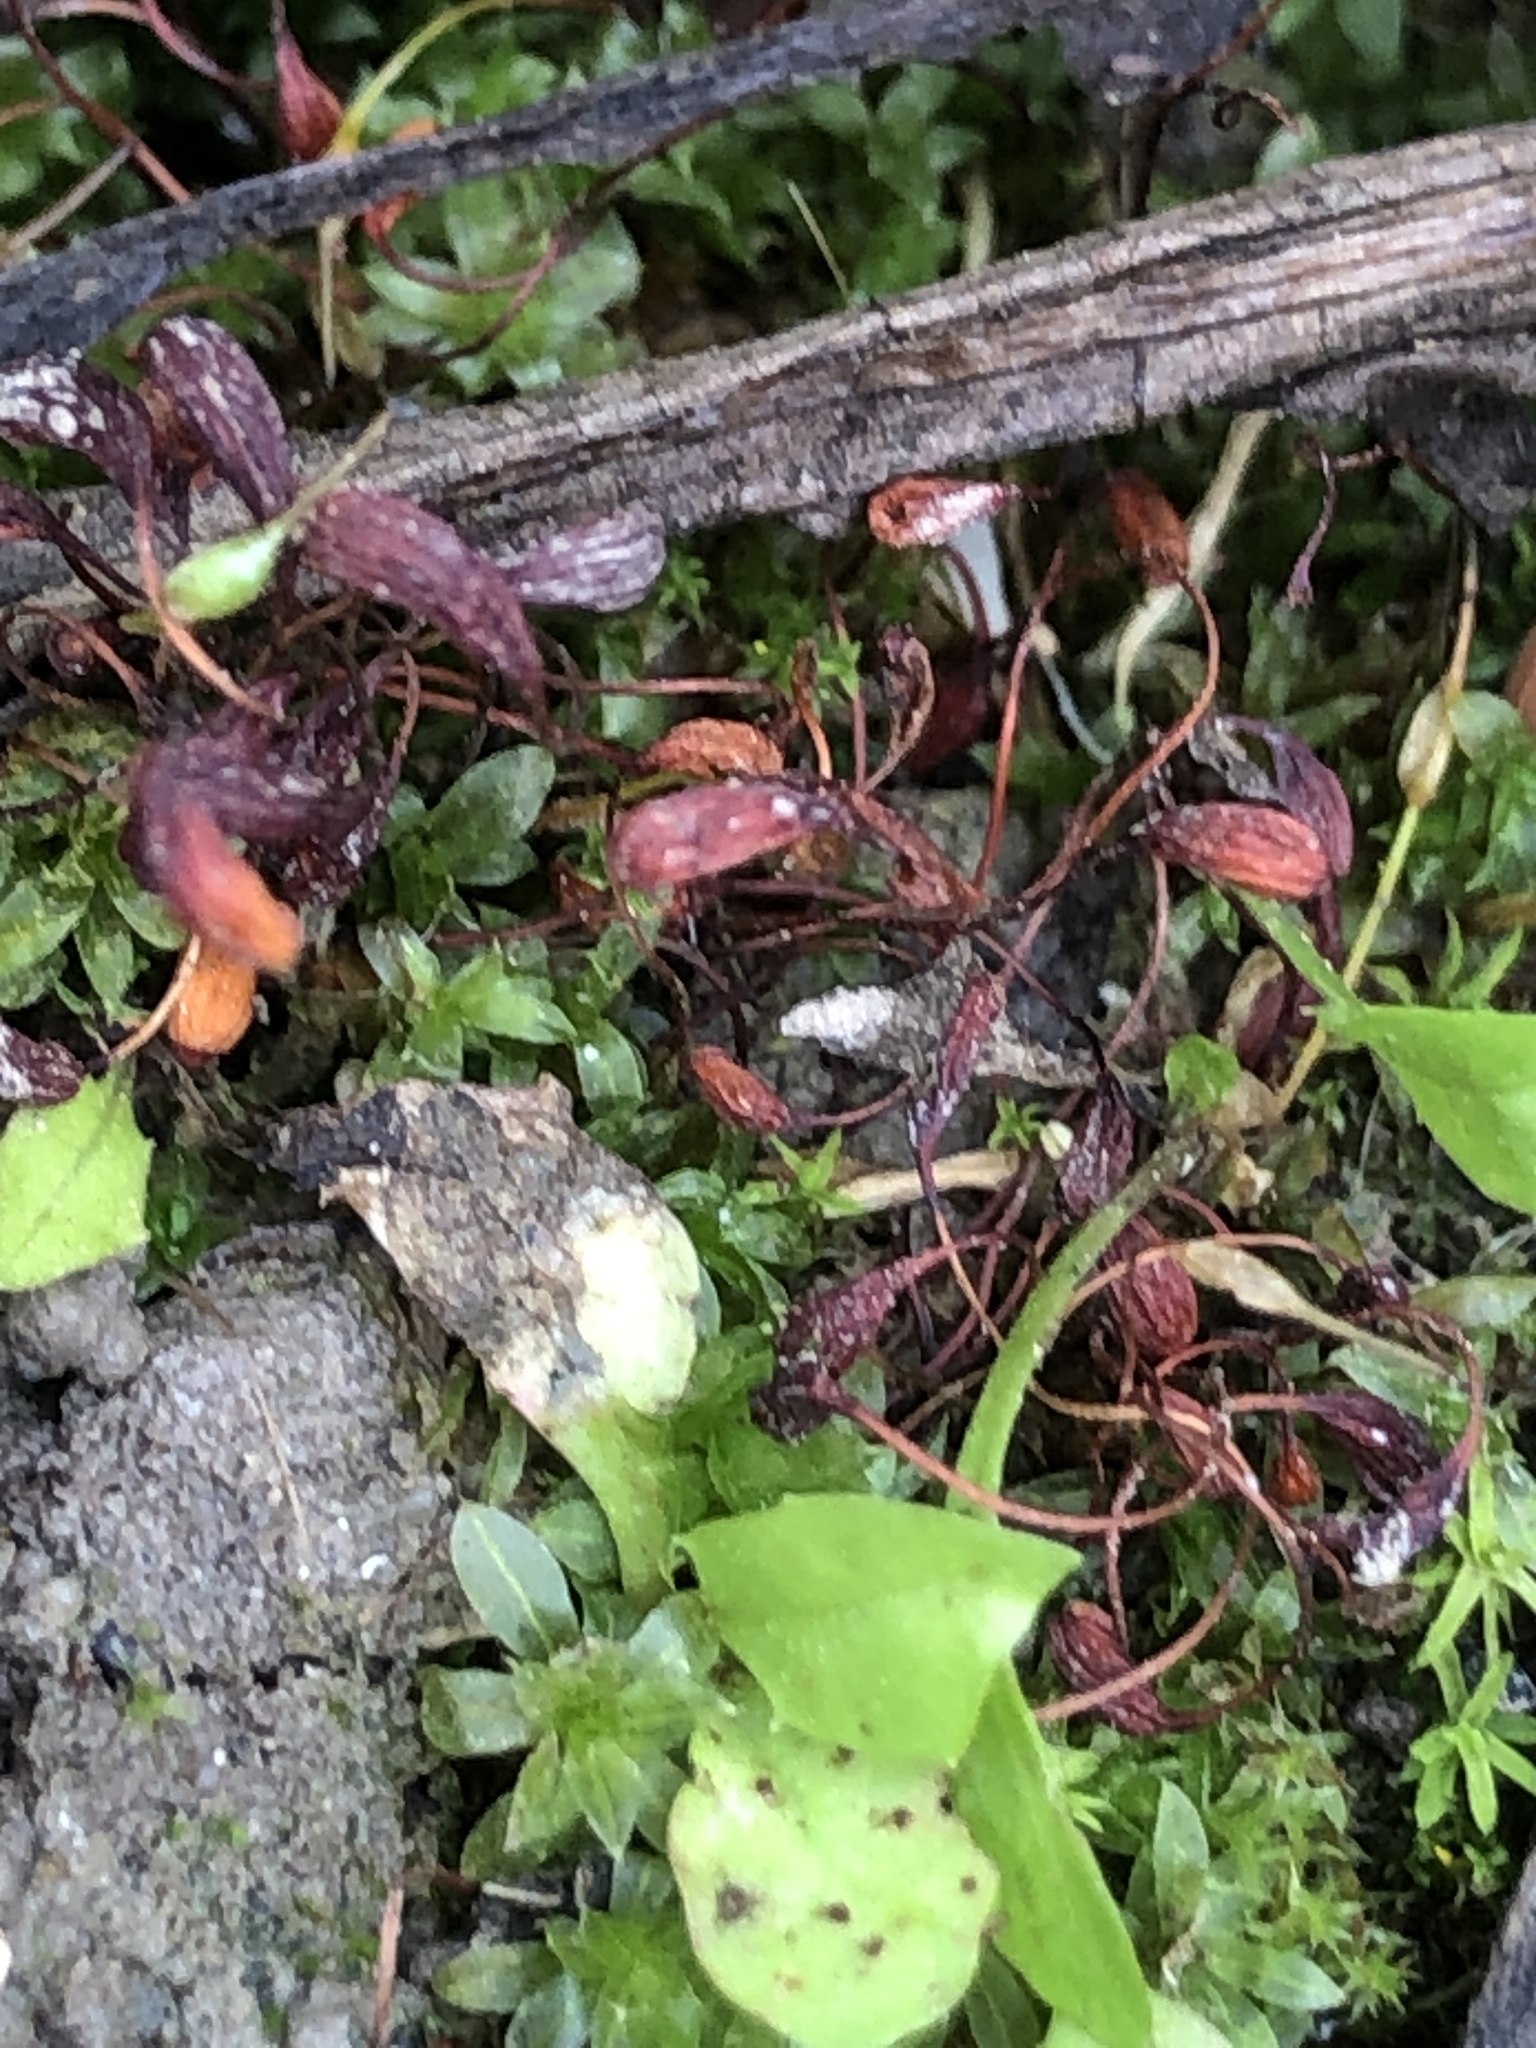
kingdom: Plantae
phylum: Bryophyta
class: Bryopsida
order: Funariales
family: Funariaceae
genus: Funaria
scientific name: Funaria hygrometrica
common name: Common cord moss
